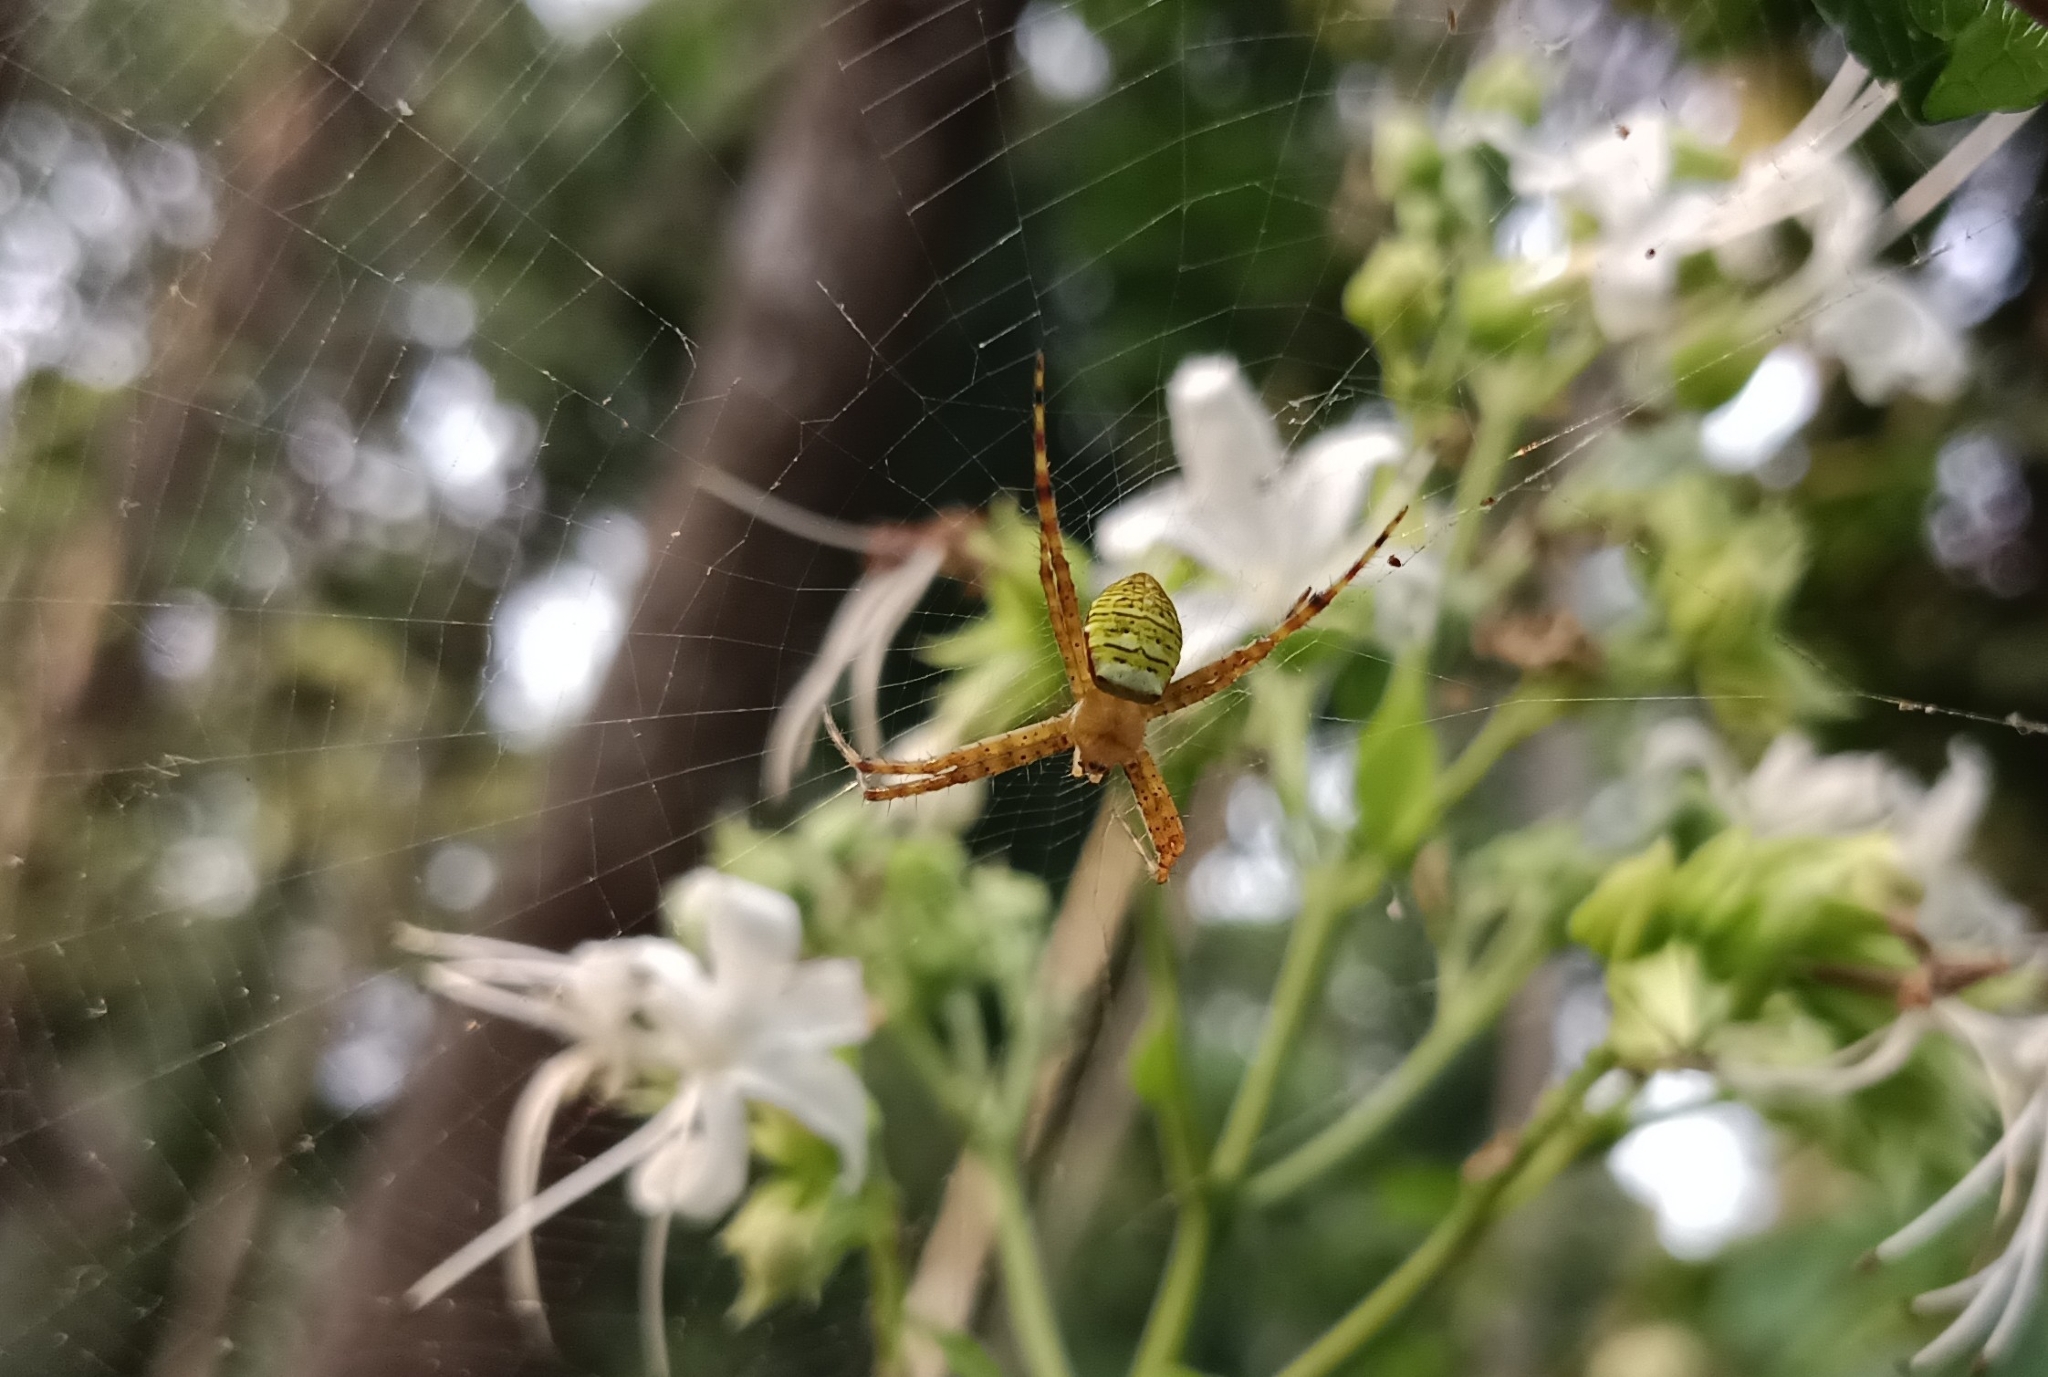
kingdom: Animalia
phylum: Arthropoda
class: Arachnida
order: Araneae
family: Araneidae
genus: Argiope
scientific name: Argiope aemula
